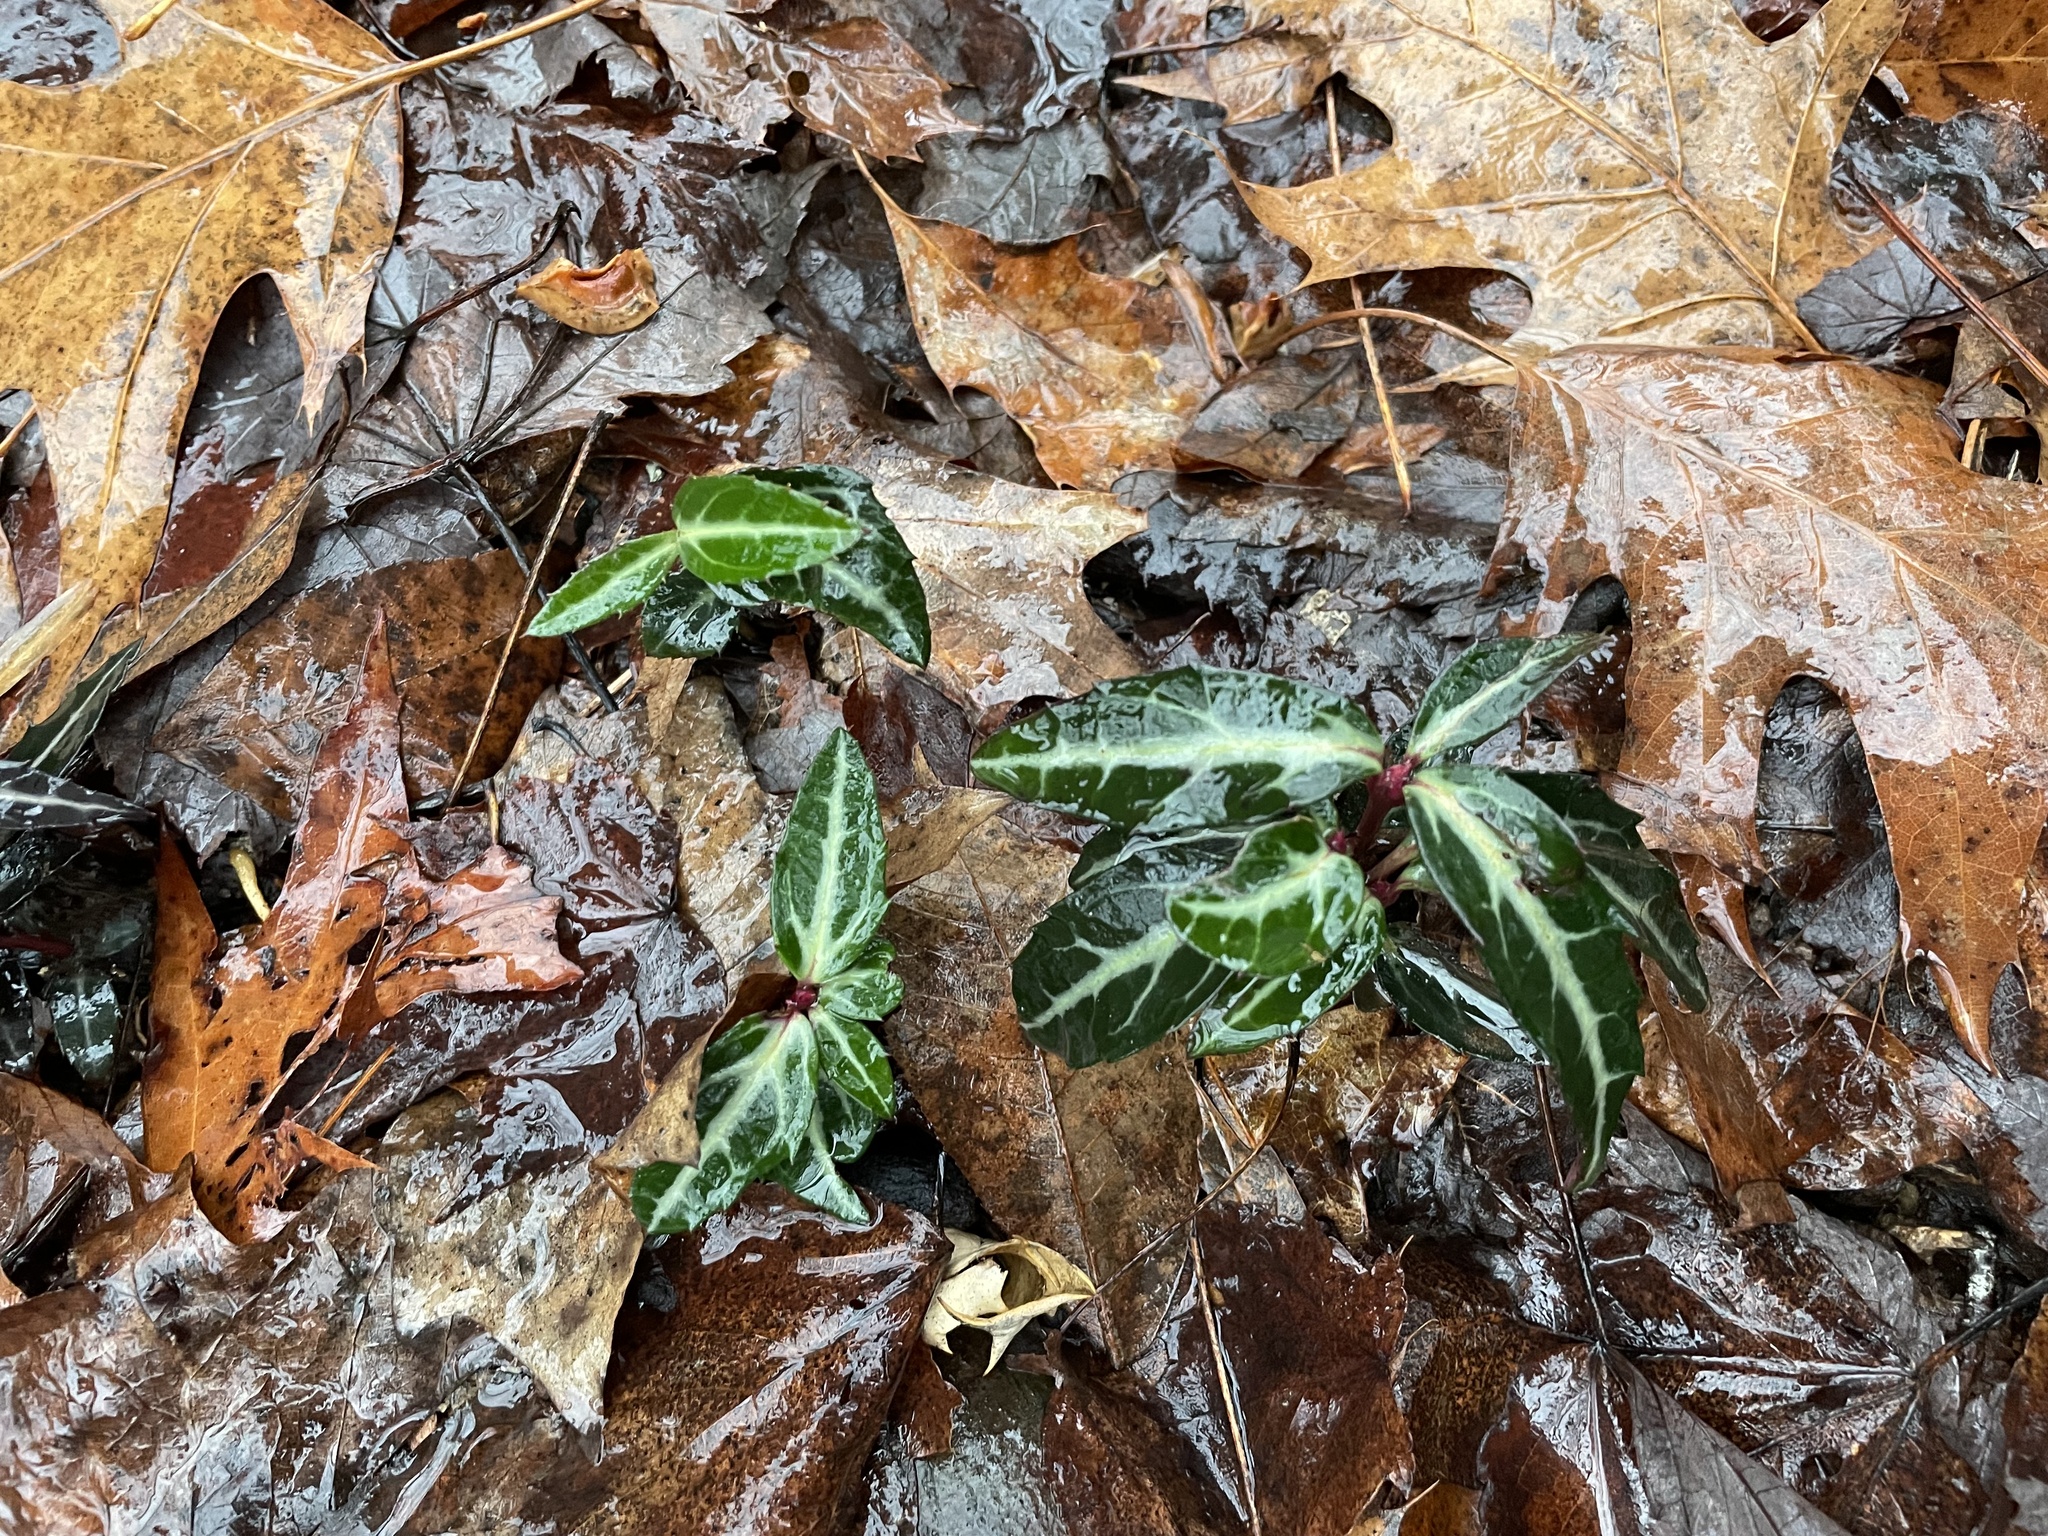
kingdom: Plantae
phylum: Tracheophyta
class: Magnoliopsida
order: Ericales
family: Ericaceae
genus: Chimaphila
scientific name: Chimaphila maculata
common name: Spotted pipsissewa
